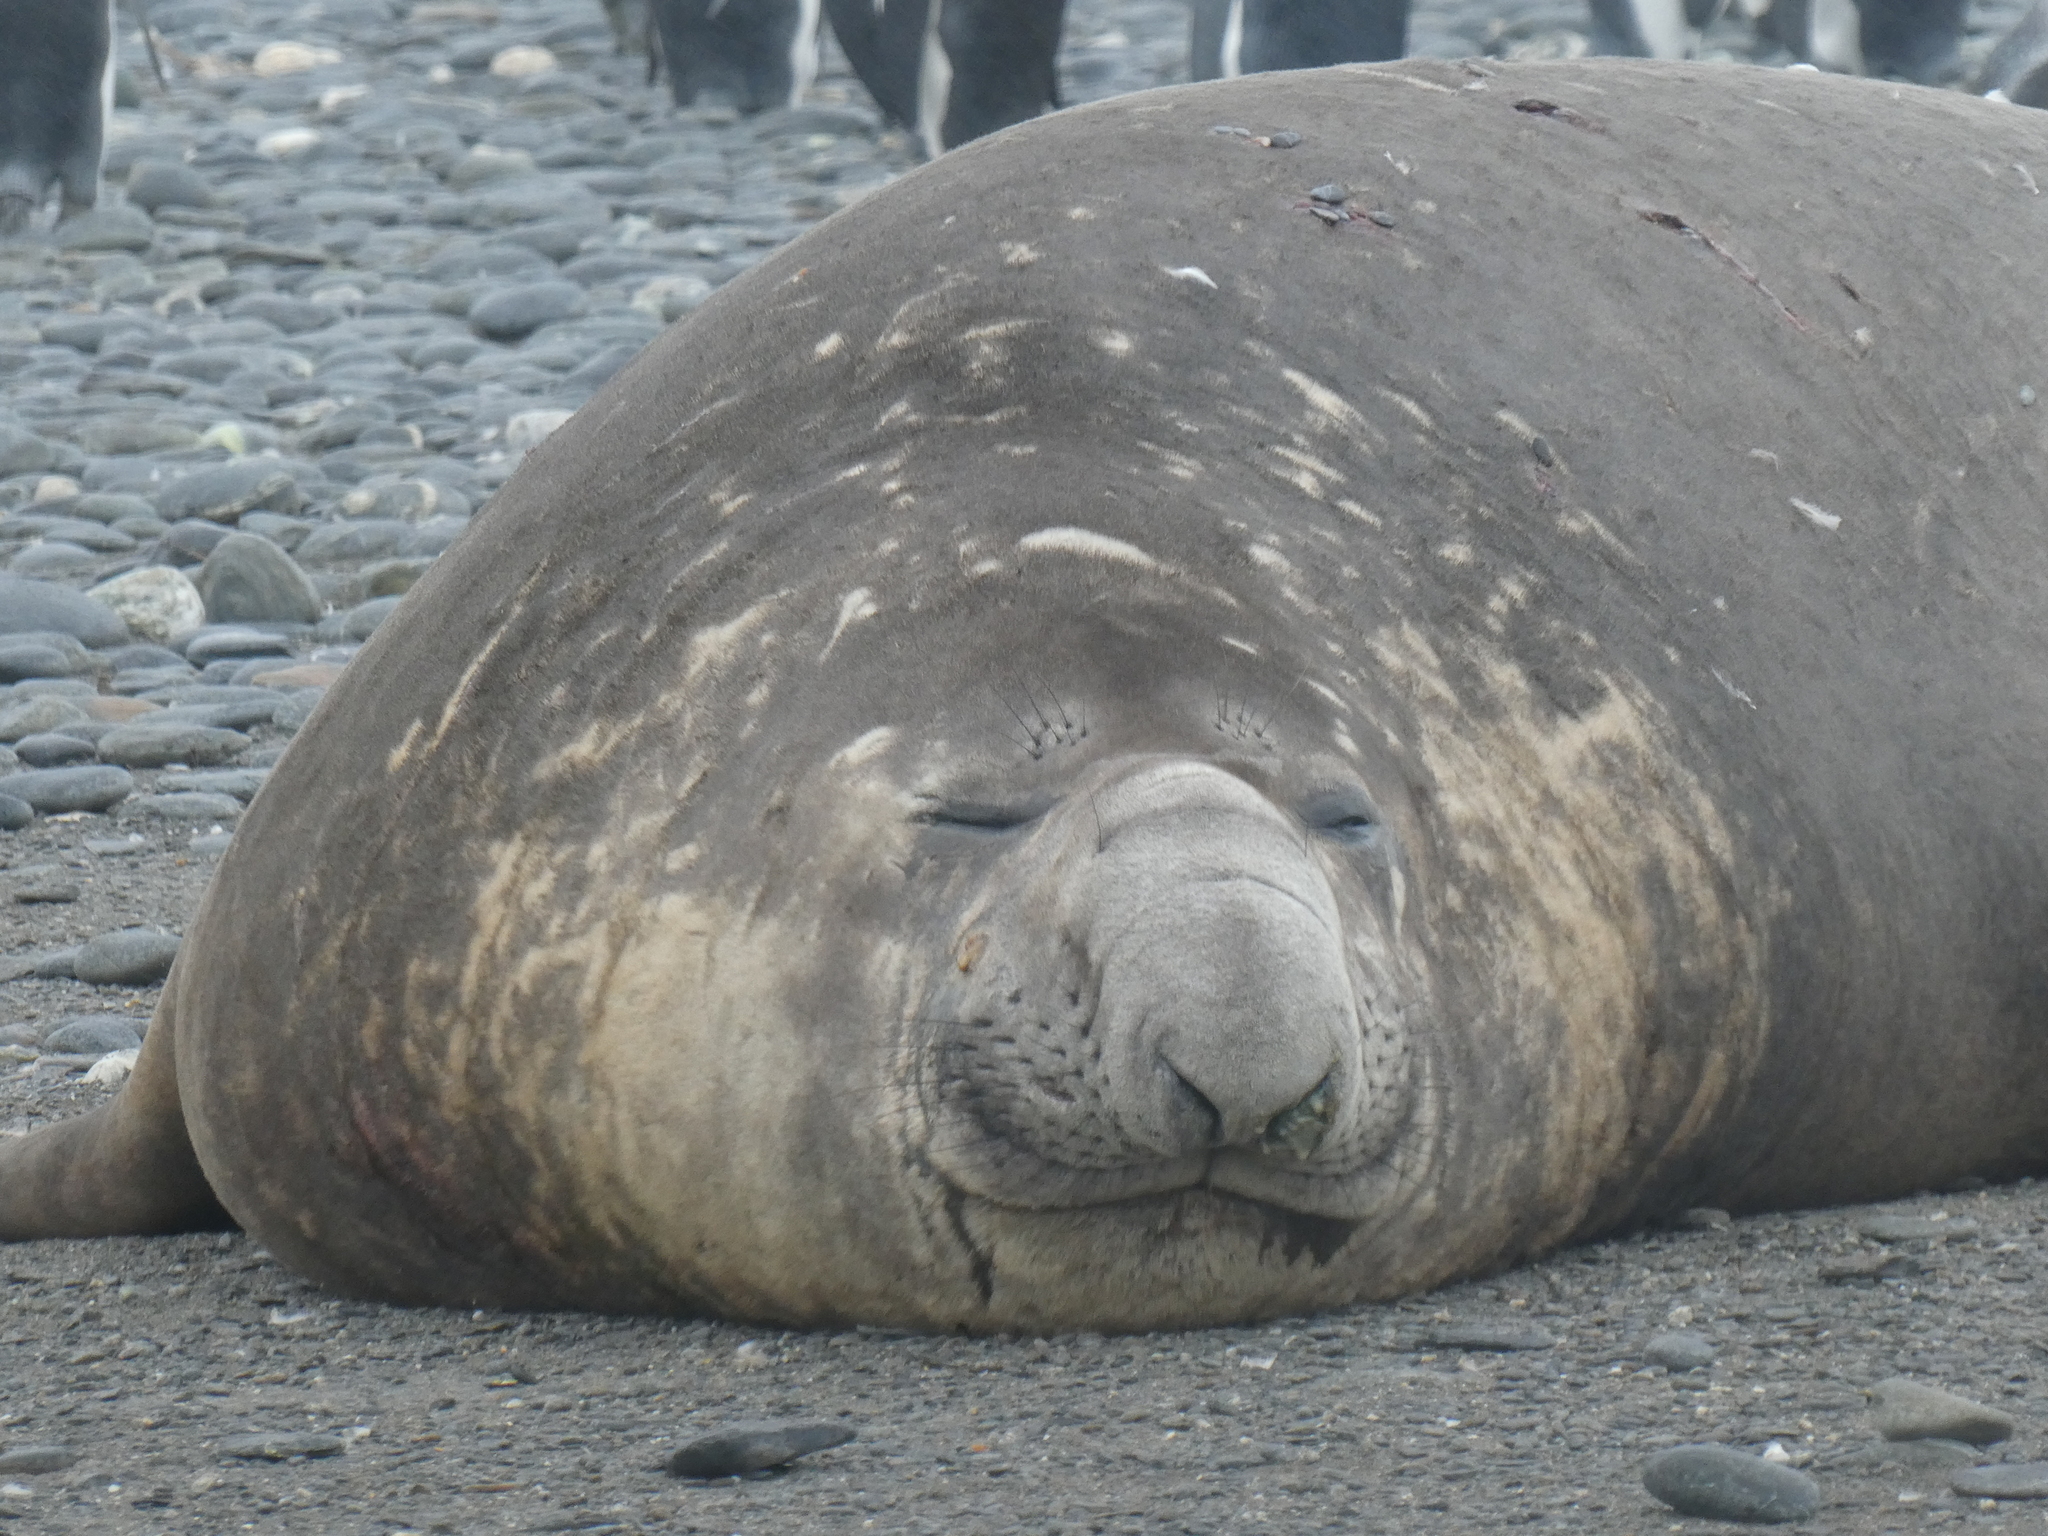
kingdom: Animalia
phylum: Chordata
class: Mammalia
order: Carnivora
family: Phocidae
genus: Mirounga
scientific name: Mirounga leonina
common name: Southern elephant seal
